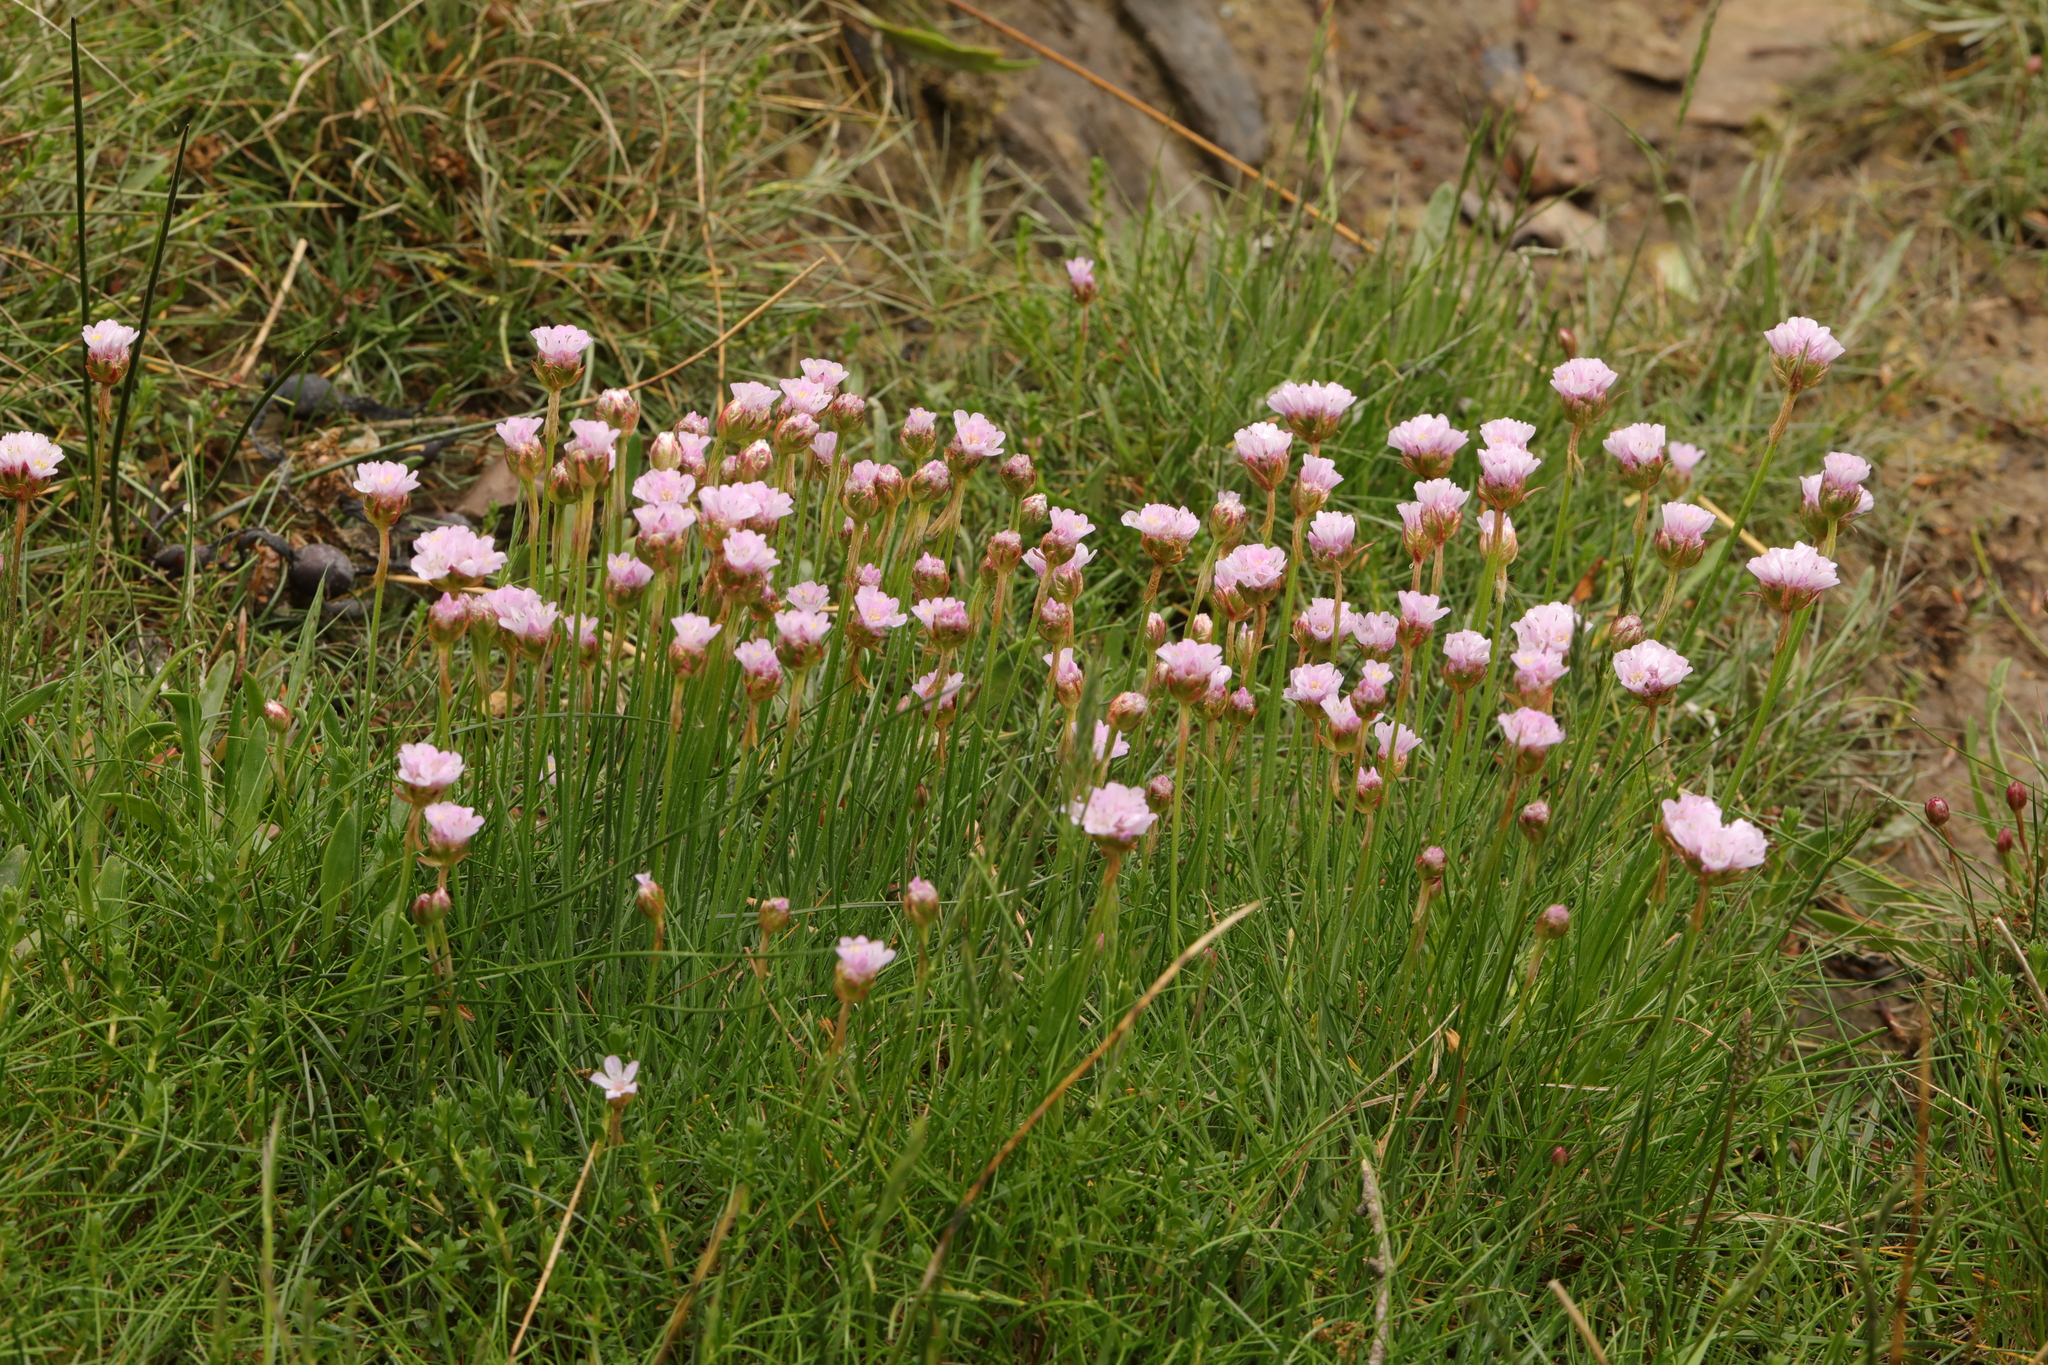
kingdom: Plantae
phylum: Tracheophyta
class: Magnoliopsida
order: Caryophyllales
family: Plumbaginaceae
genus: Armeria
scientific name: Armeria maritima
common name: Thrift
